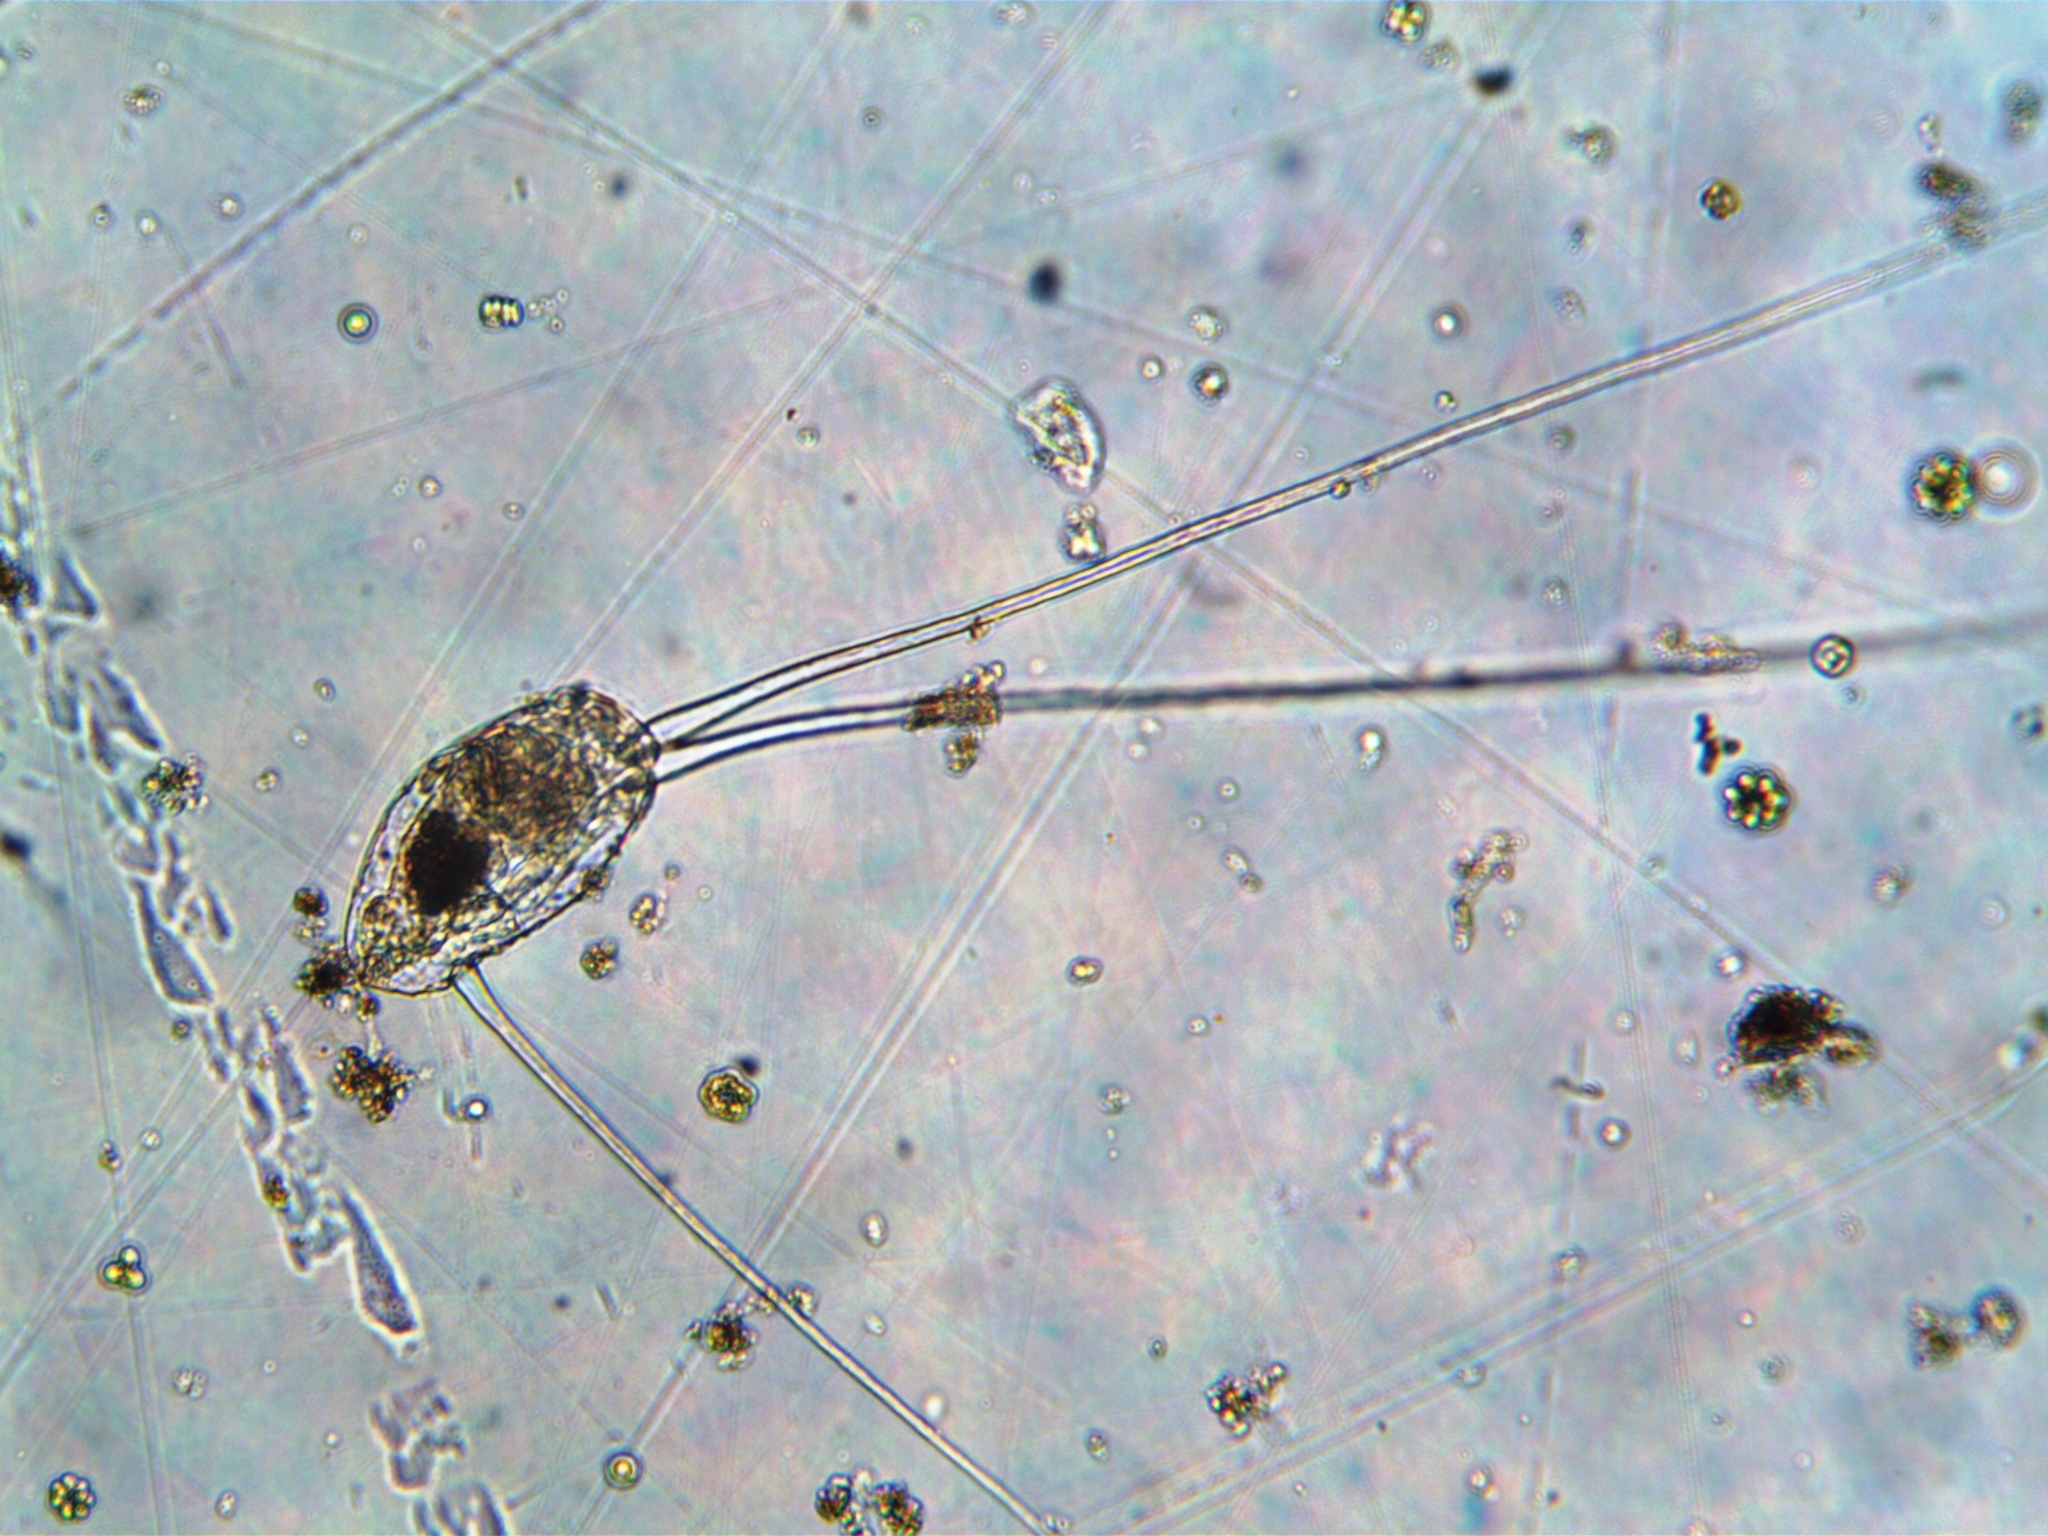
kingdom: Animalia
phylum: Rotifera
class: Eurotatoria
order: Flosculariaceae
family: Trochosphaeridae
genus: Filinia
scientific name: Filinia longiseta
